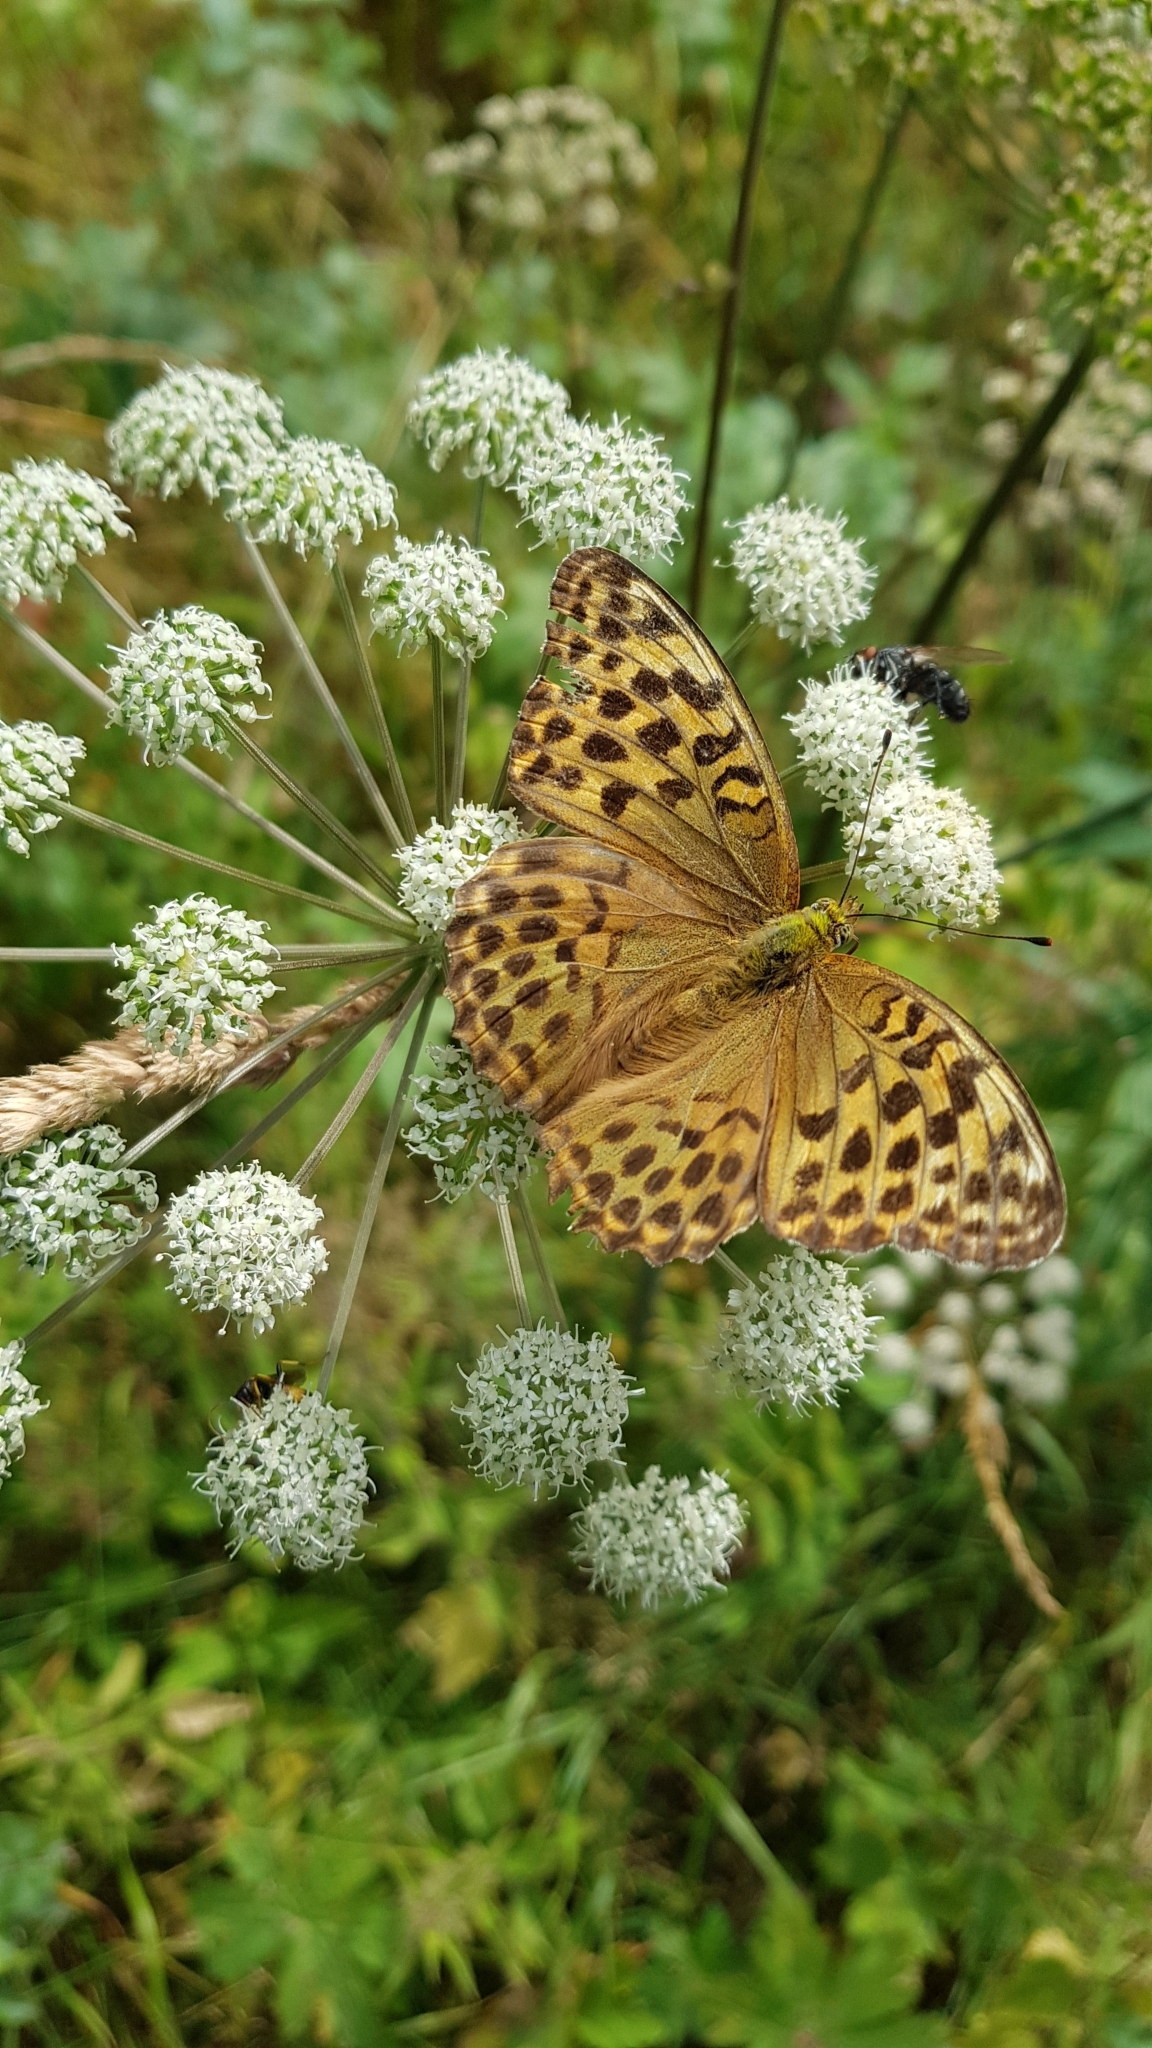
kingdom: Animalia
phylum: Arthropoda
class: Insecta
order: Lepidoptera
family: Nymphalidae
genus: Argynnis
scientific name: Argynnis paphia
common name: Silver-washed fritillary
